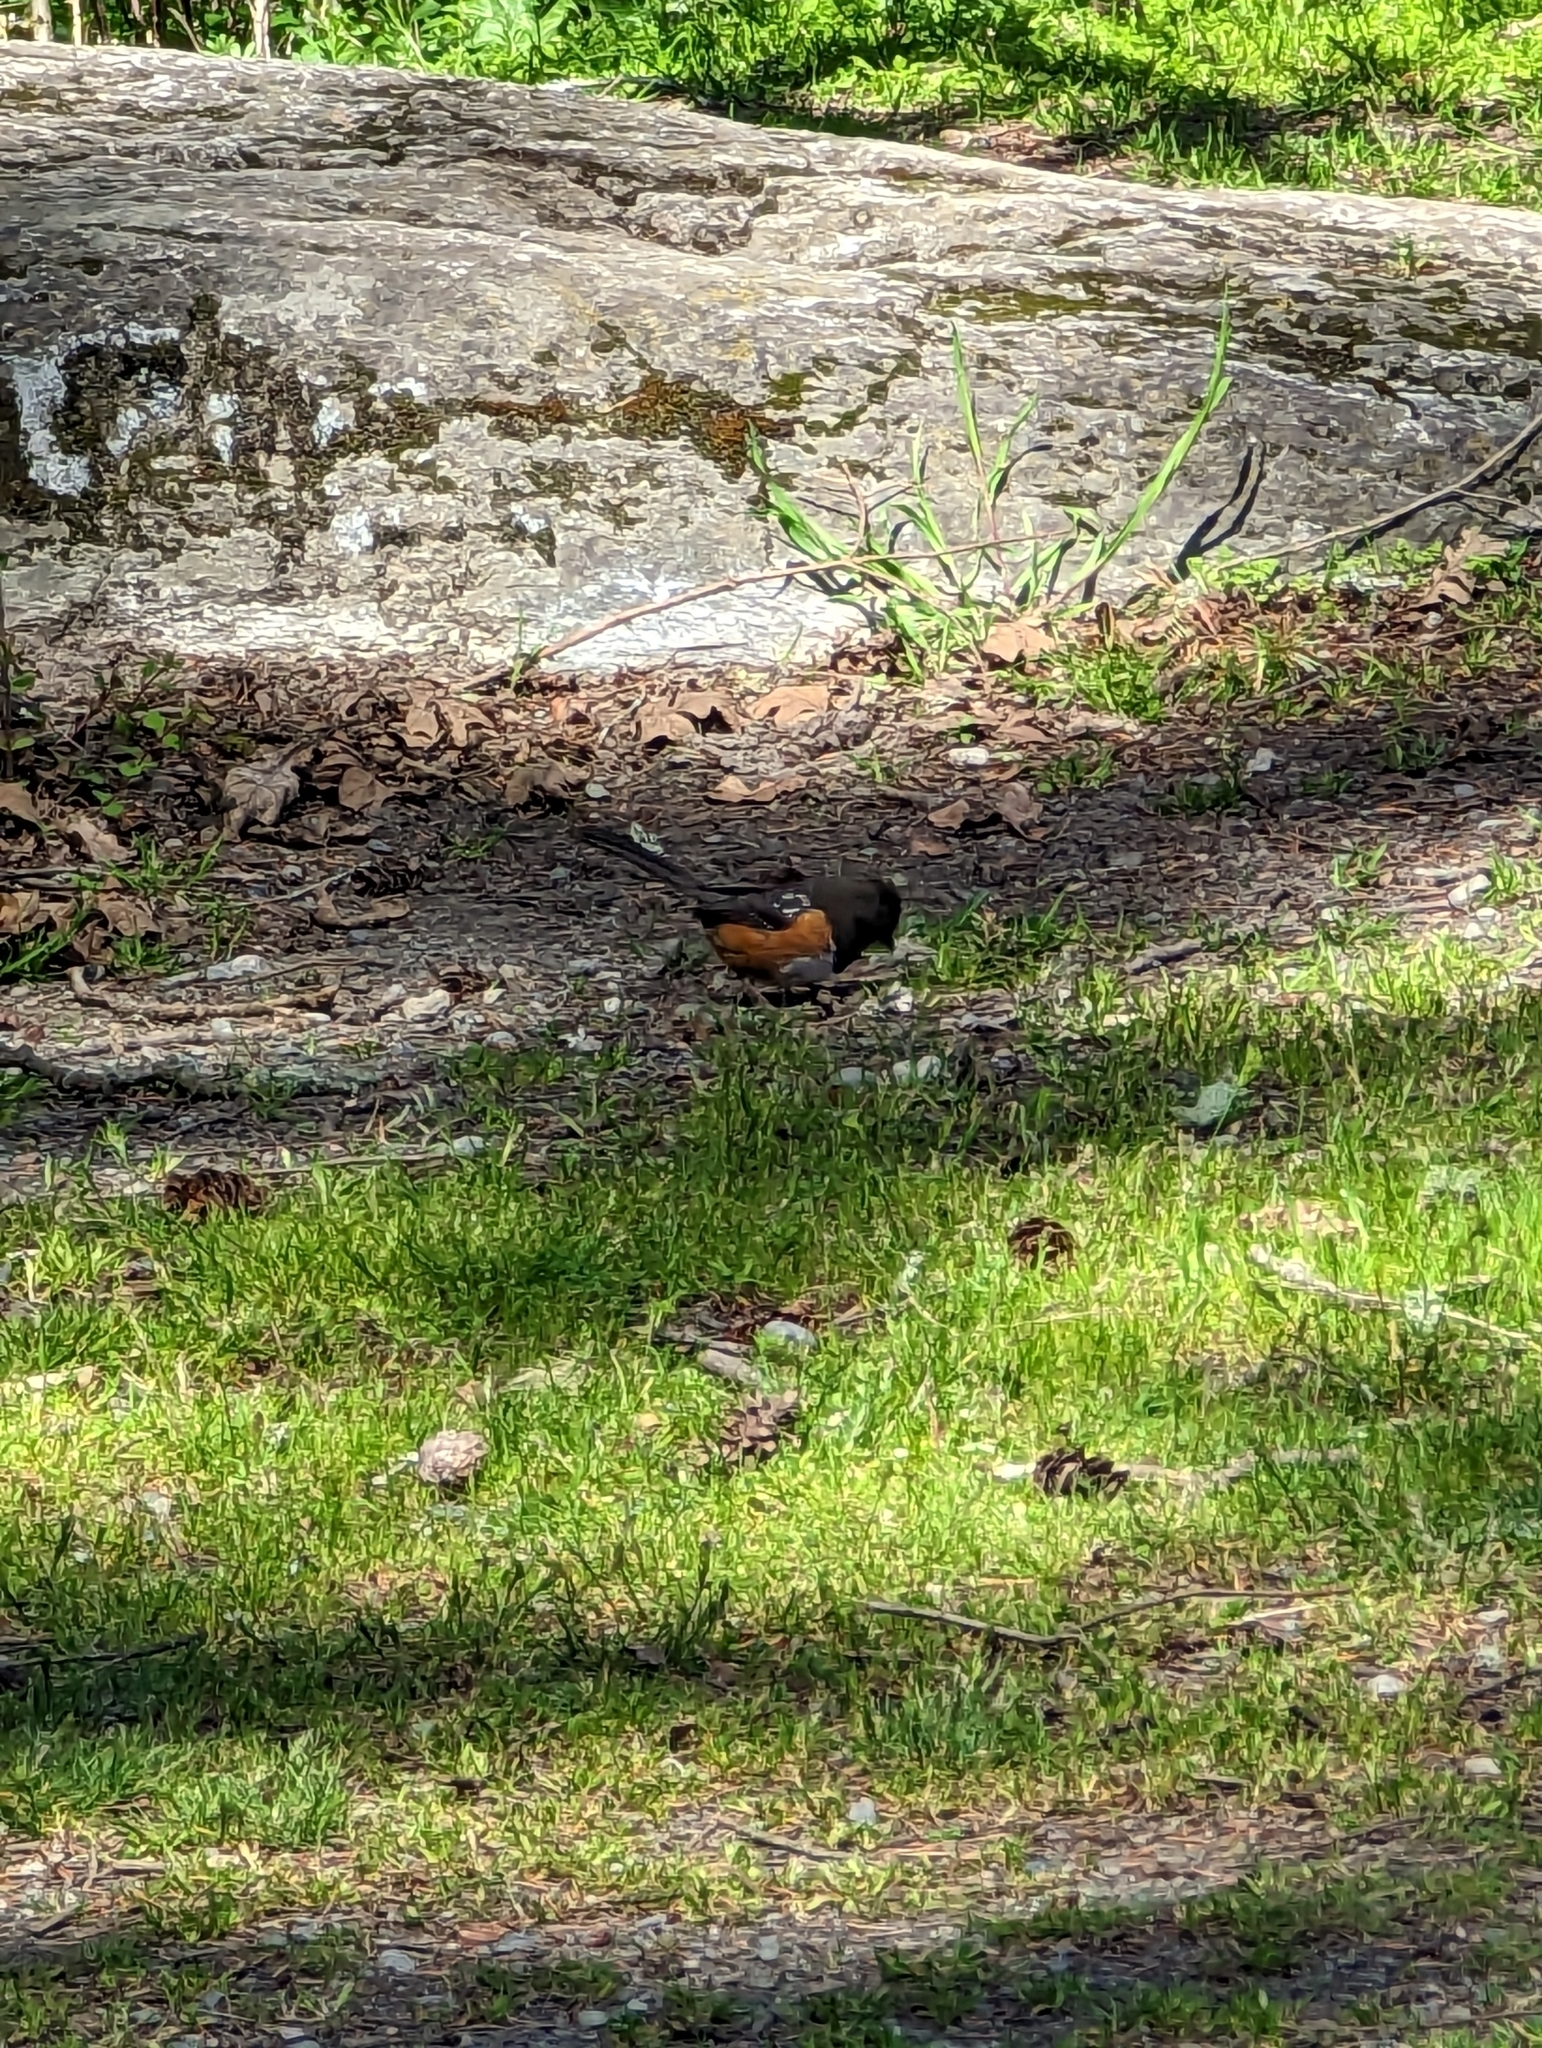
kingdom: Animalia
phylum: Chordata
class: Aves
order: Passeriformes
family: Passerellidae
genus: Pipilo
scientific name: Pipilo maculatus
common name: Spotted towhee
